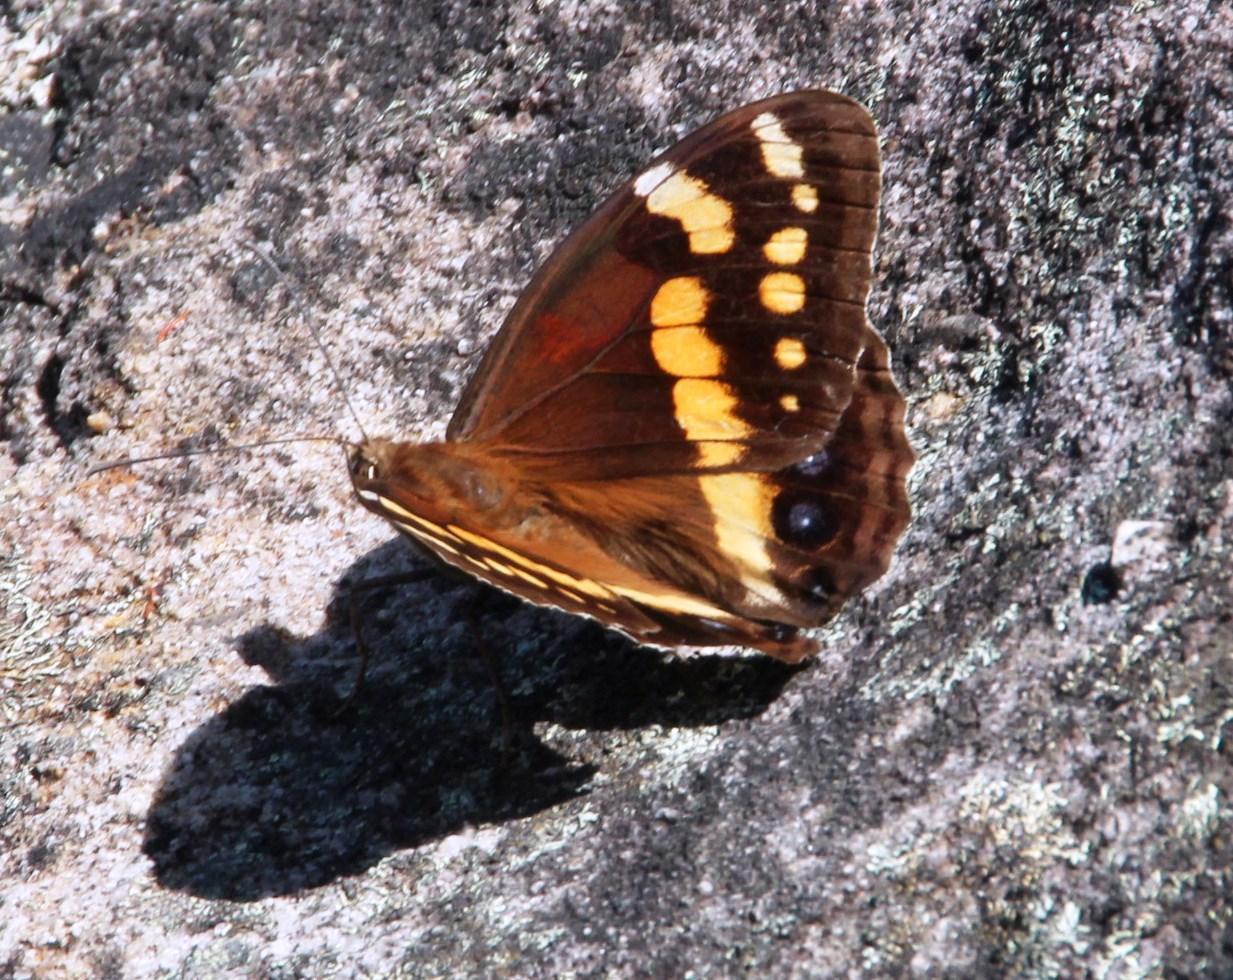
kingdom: Animalia
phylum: Arthropoda
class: Insecta
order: Lepidoptera
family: Nymphalidae
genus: Meneris
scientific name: Meneris Aeropetes tulbaghia
